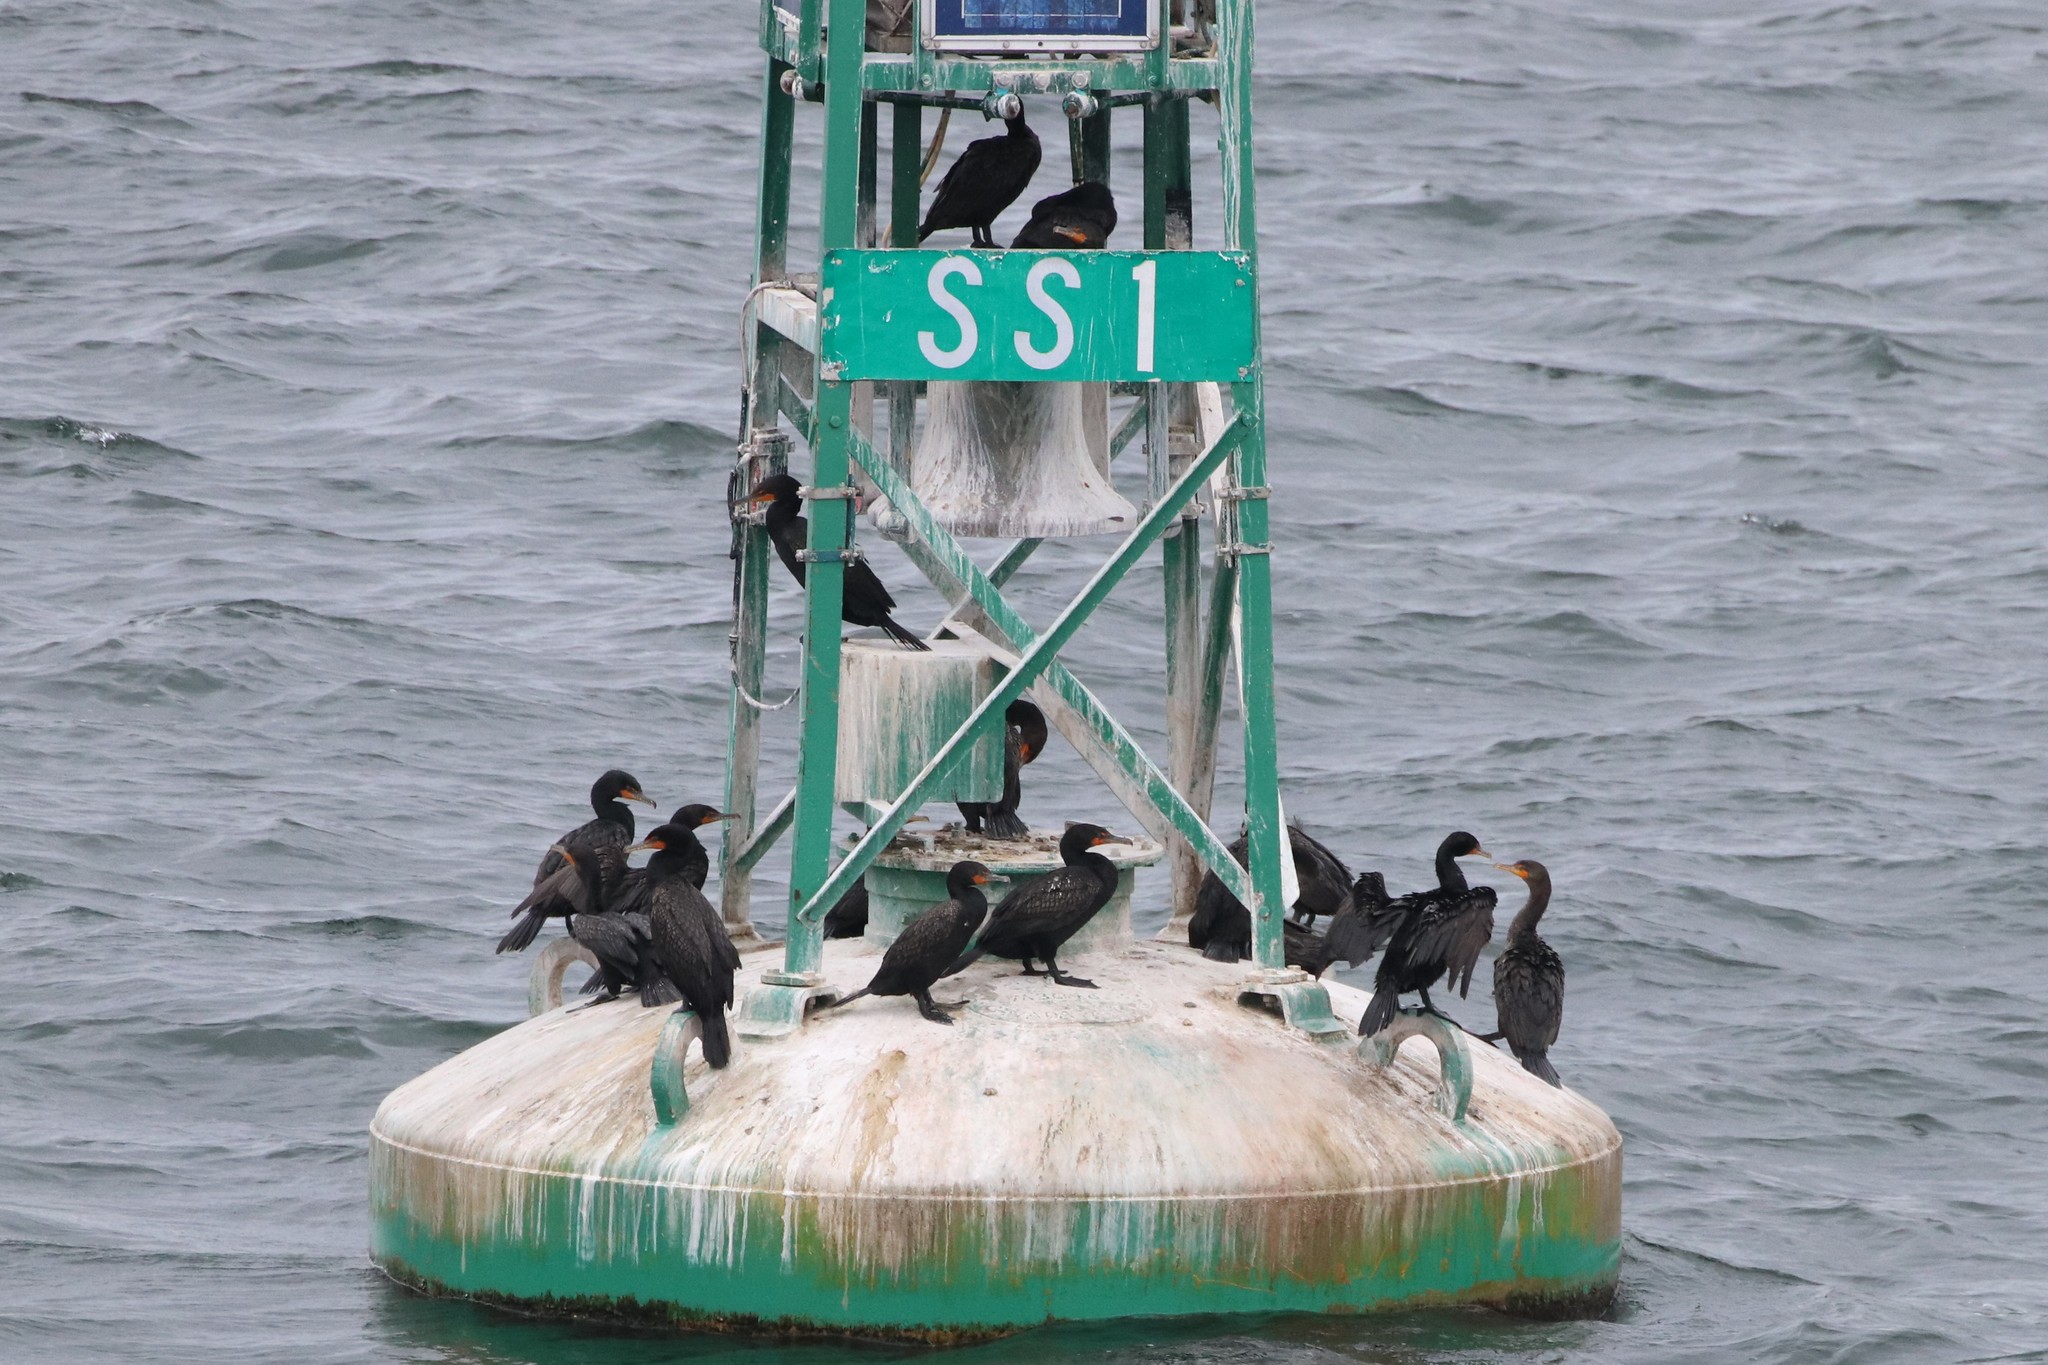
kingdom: Animalia
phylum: Chordata
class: Aves
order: Suliformes
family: Phalacrocoracidae
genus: Phalacrocorax
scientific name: Phalacrocorax auritus
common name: Double-crested cormorant
